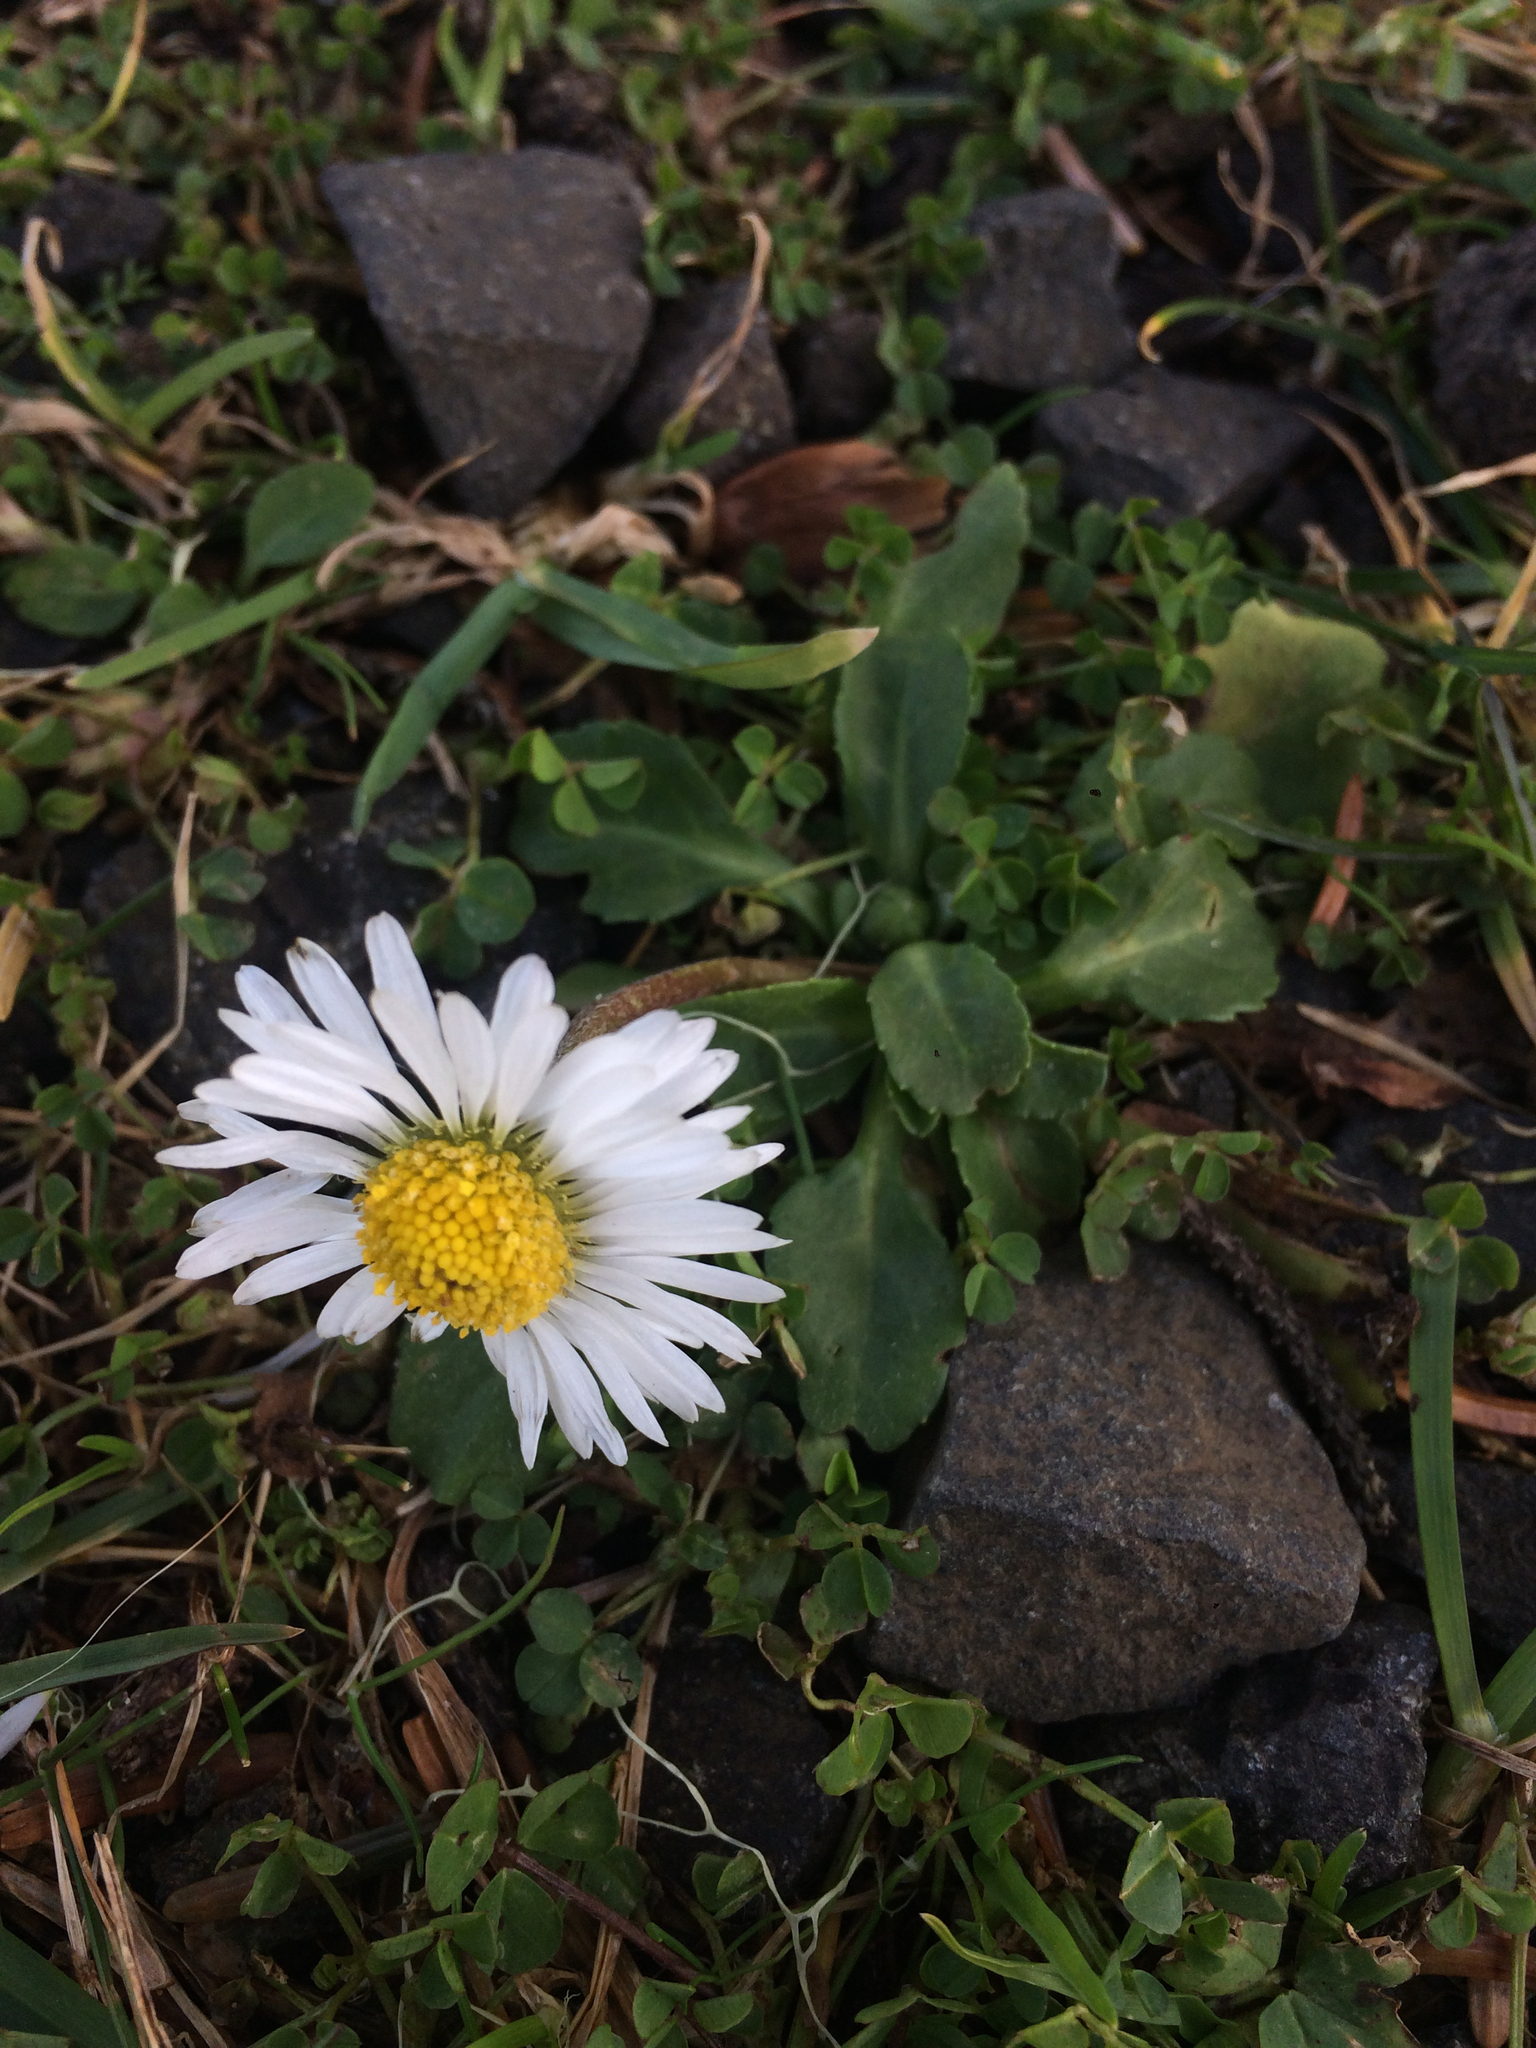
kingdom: Plantae
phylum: Tracheophyta
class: Magnoliopsida
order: Asterales
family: Asteraceae
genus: Bellis
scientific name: Bellis perennis
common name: Lawndaisy
